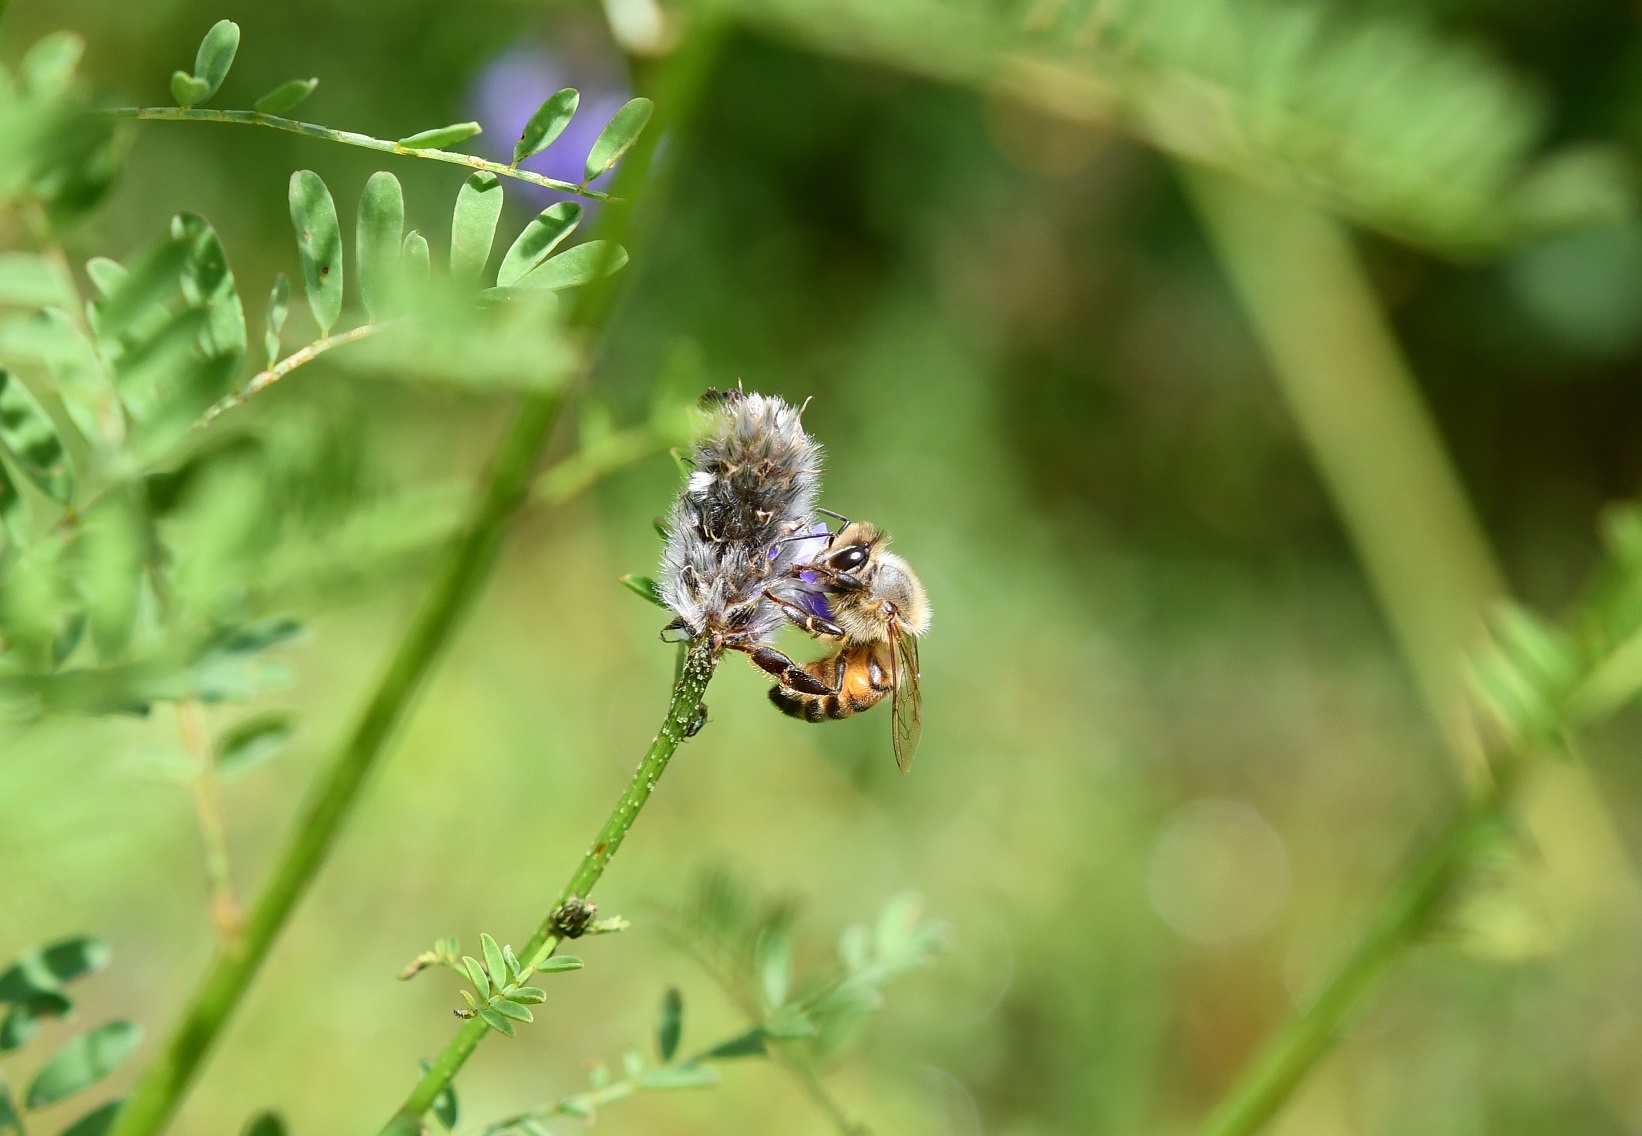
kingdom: Animalia
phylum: Arthropoda
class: Insecta
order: Hymenoptera
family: Apidae
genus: Apis
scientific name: Apis mellifera
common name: Honey bee
